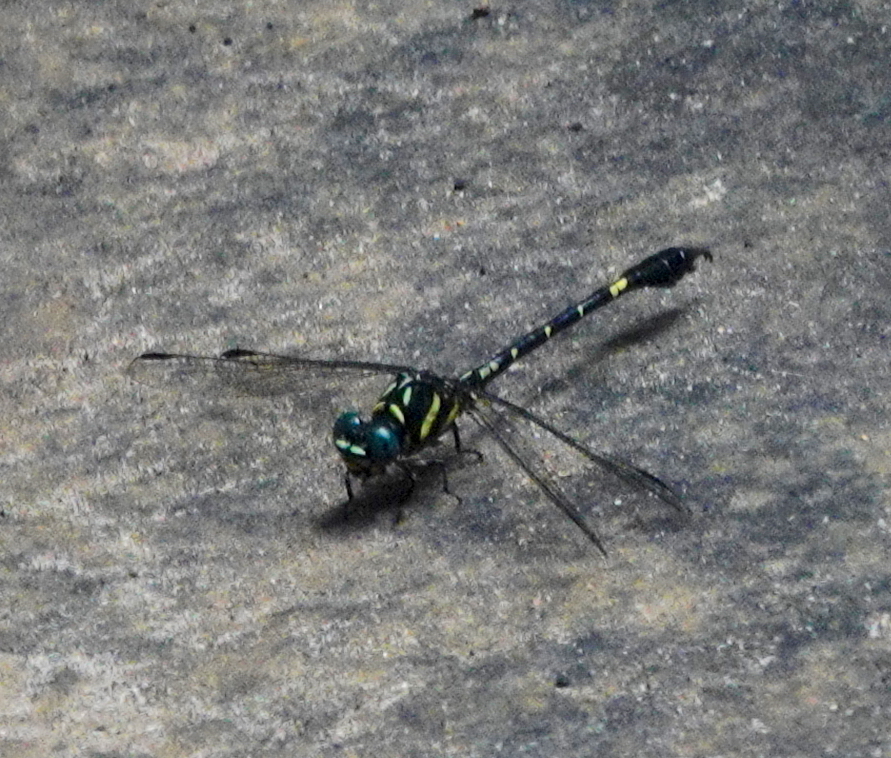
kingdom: Animalia
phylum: Arthropoda
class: Insecta
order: Odonata
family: Gomphidae
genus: Paragomphus
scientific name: Paragomphus henryi
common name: Brook hooktail
